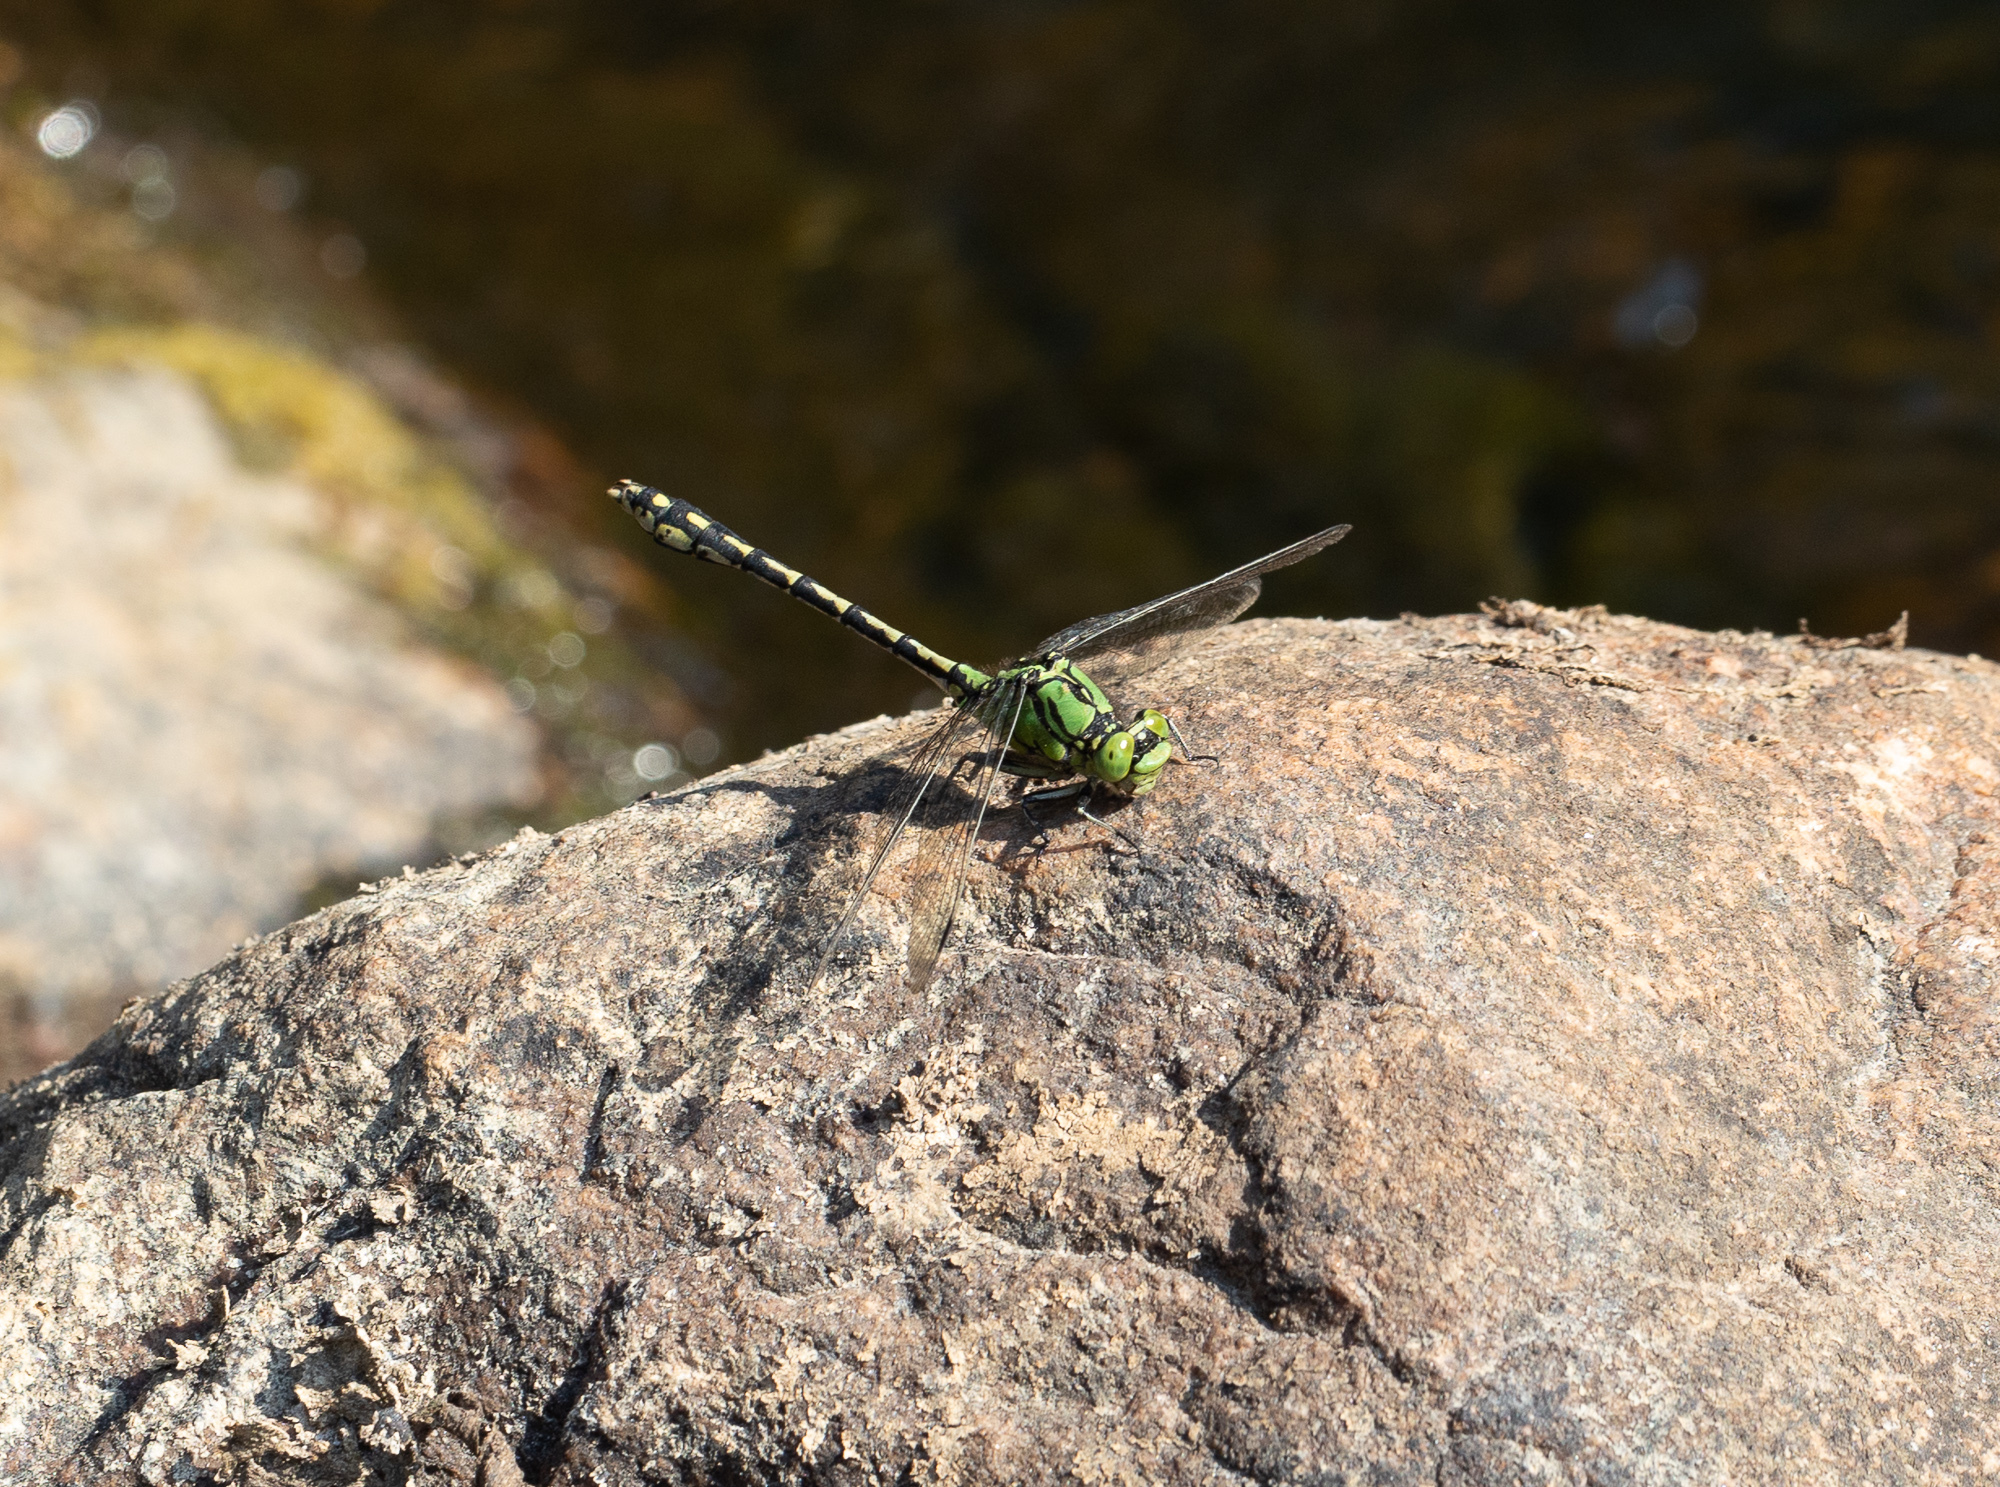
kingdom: Animalia
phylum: Arthropoda
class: Insecta
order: Odonata
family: Gomphidae
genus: Ophiogomphus
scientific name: Ophiogomphus cecilia
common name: Green snaketail
